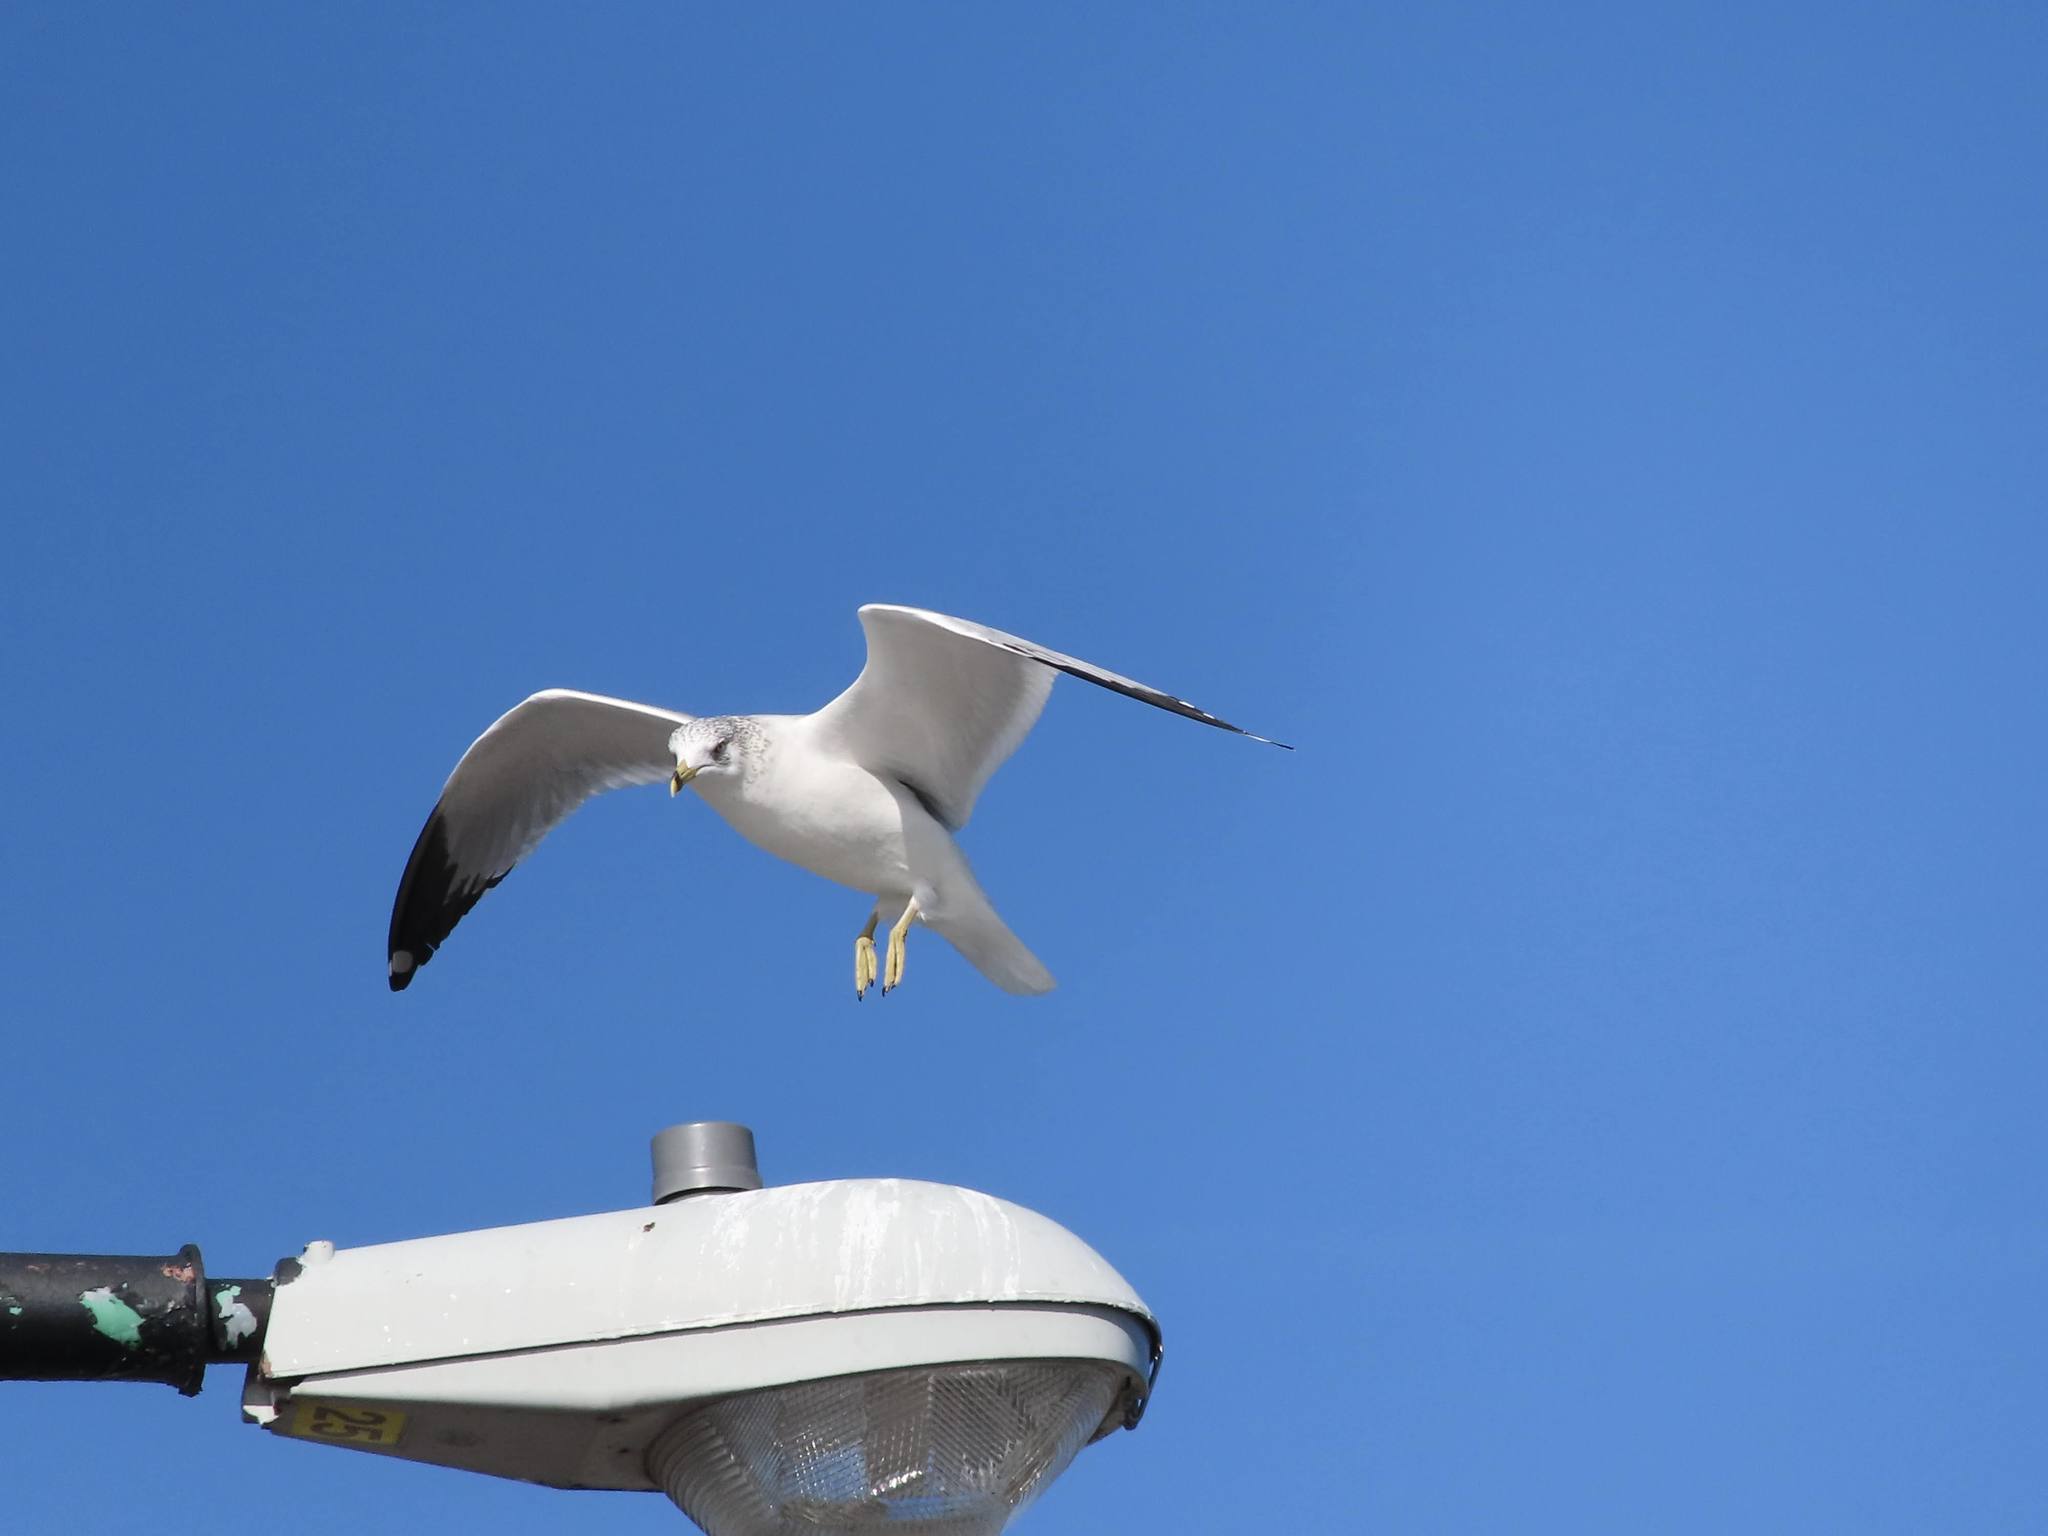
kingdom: Animalia
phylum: Chordata
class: Aves
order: Charadriiformes
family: Laridae
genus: Larus
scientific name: Larus delawarensis
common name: Ring-billed gull
